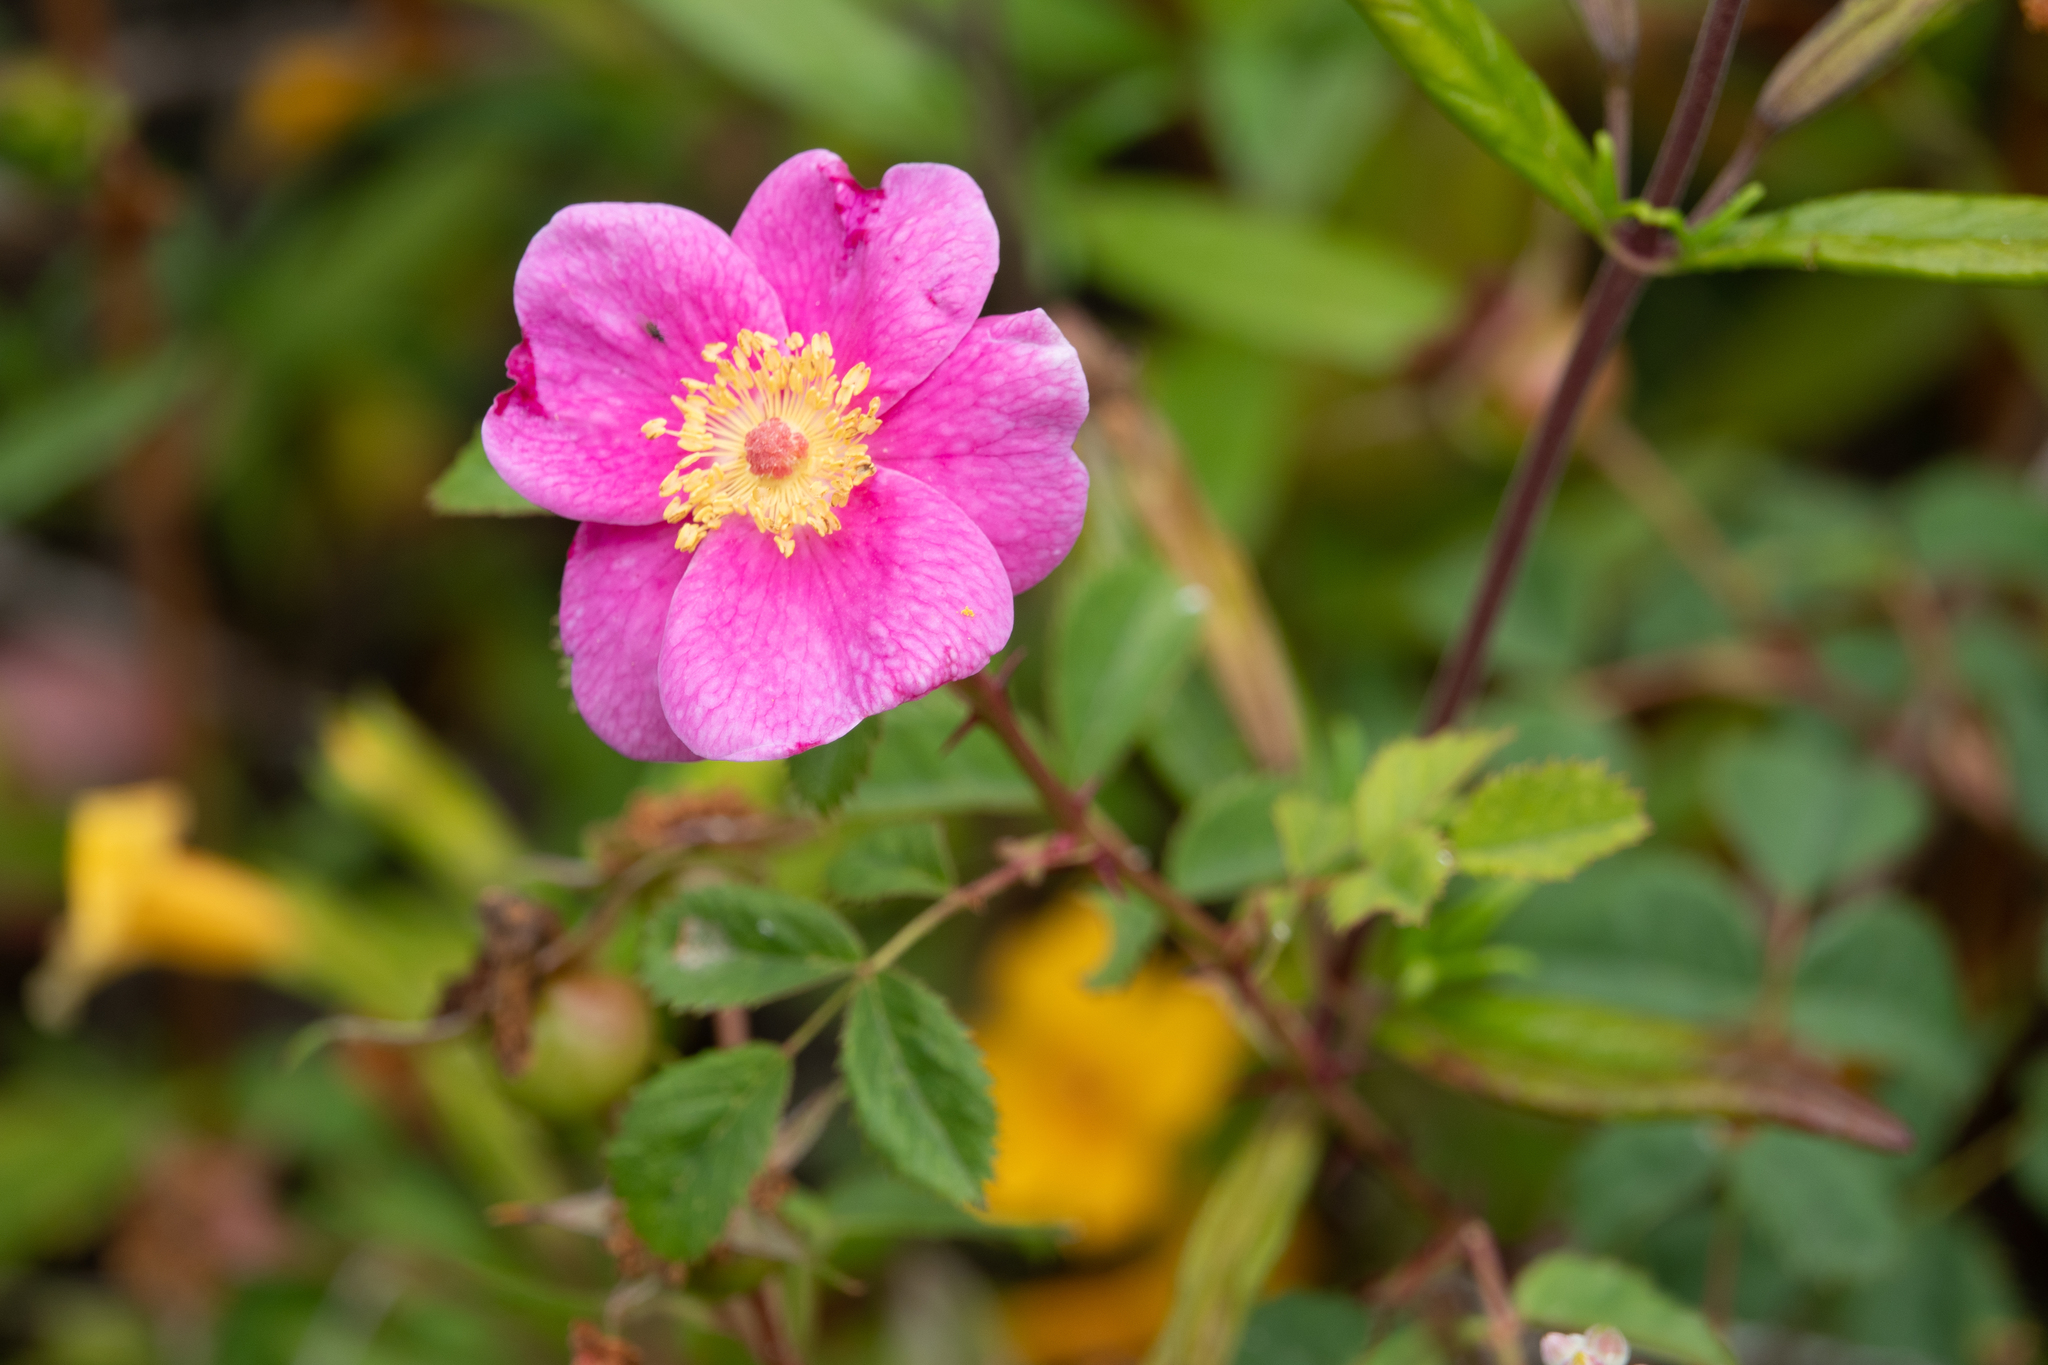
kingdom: Plantae
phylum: Tracheophyta
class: Magnoliopsida
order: Rosales
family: Rosaceae
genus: Rosa
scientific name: Rosa californica
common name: California rose
